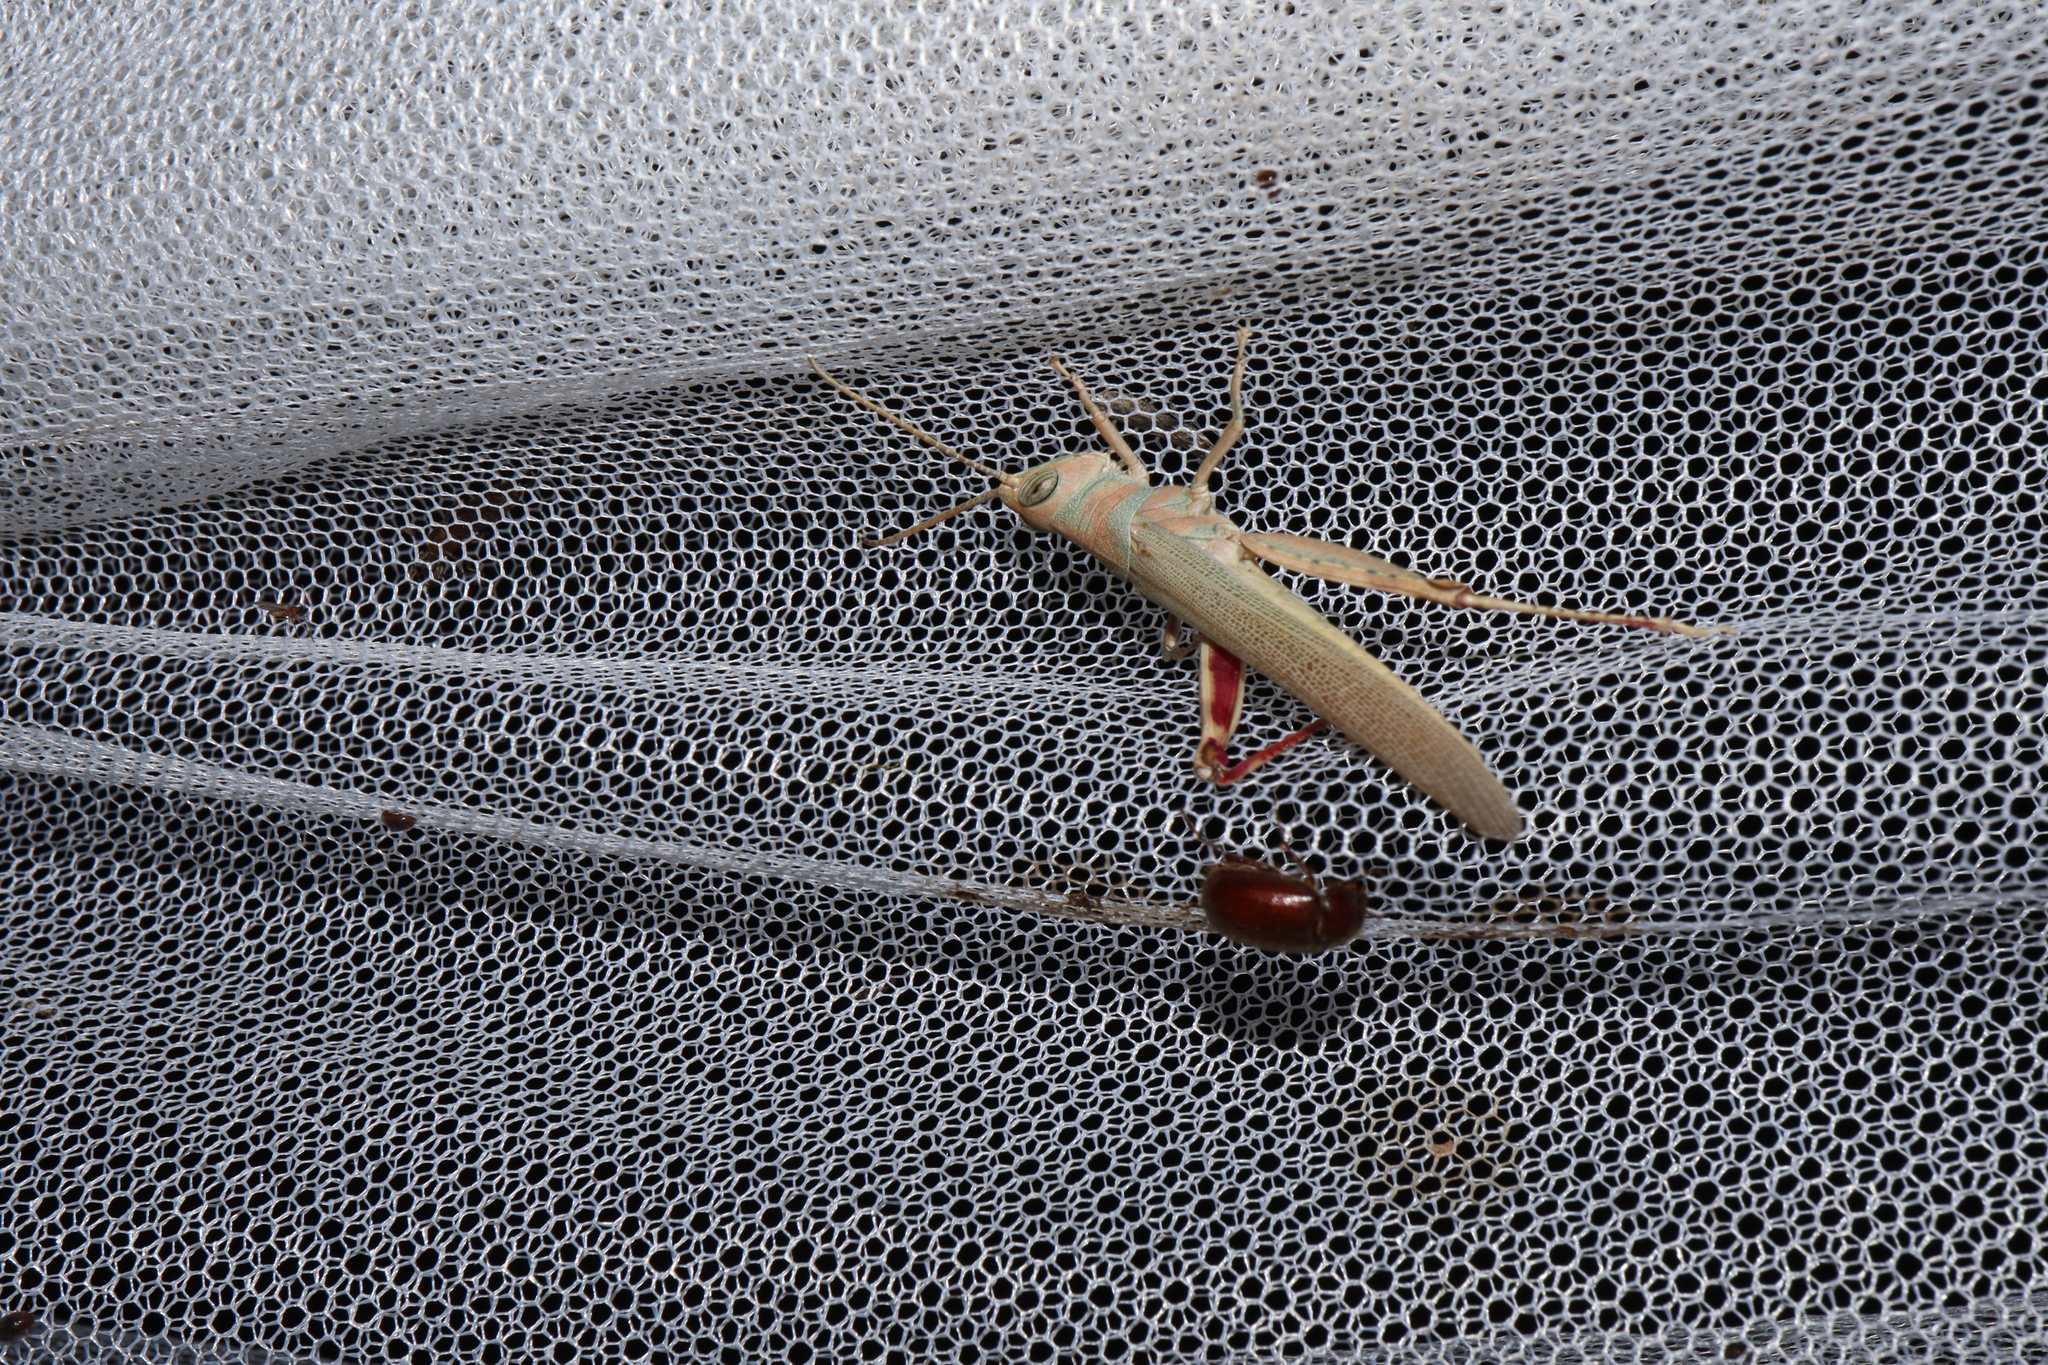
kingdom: Animalia
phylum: Arthropoda
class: Insecta
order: Orthoptera
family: Acrididae
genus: Pardillana
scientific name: Pardillana limbata
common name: Common pardillana
